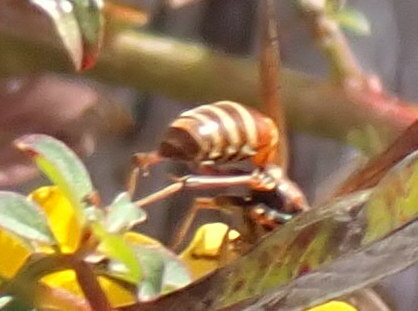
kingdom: Animalia
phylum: Arthropoda
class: Insecta
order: Hymenoptera
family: Eumenidae
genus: Polistes
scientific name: Polistes bellicosus
